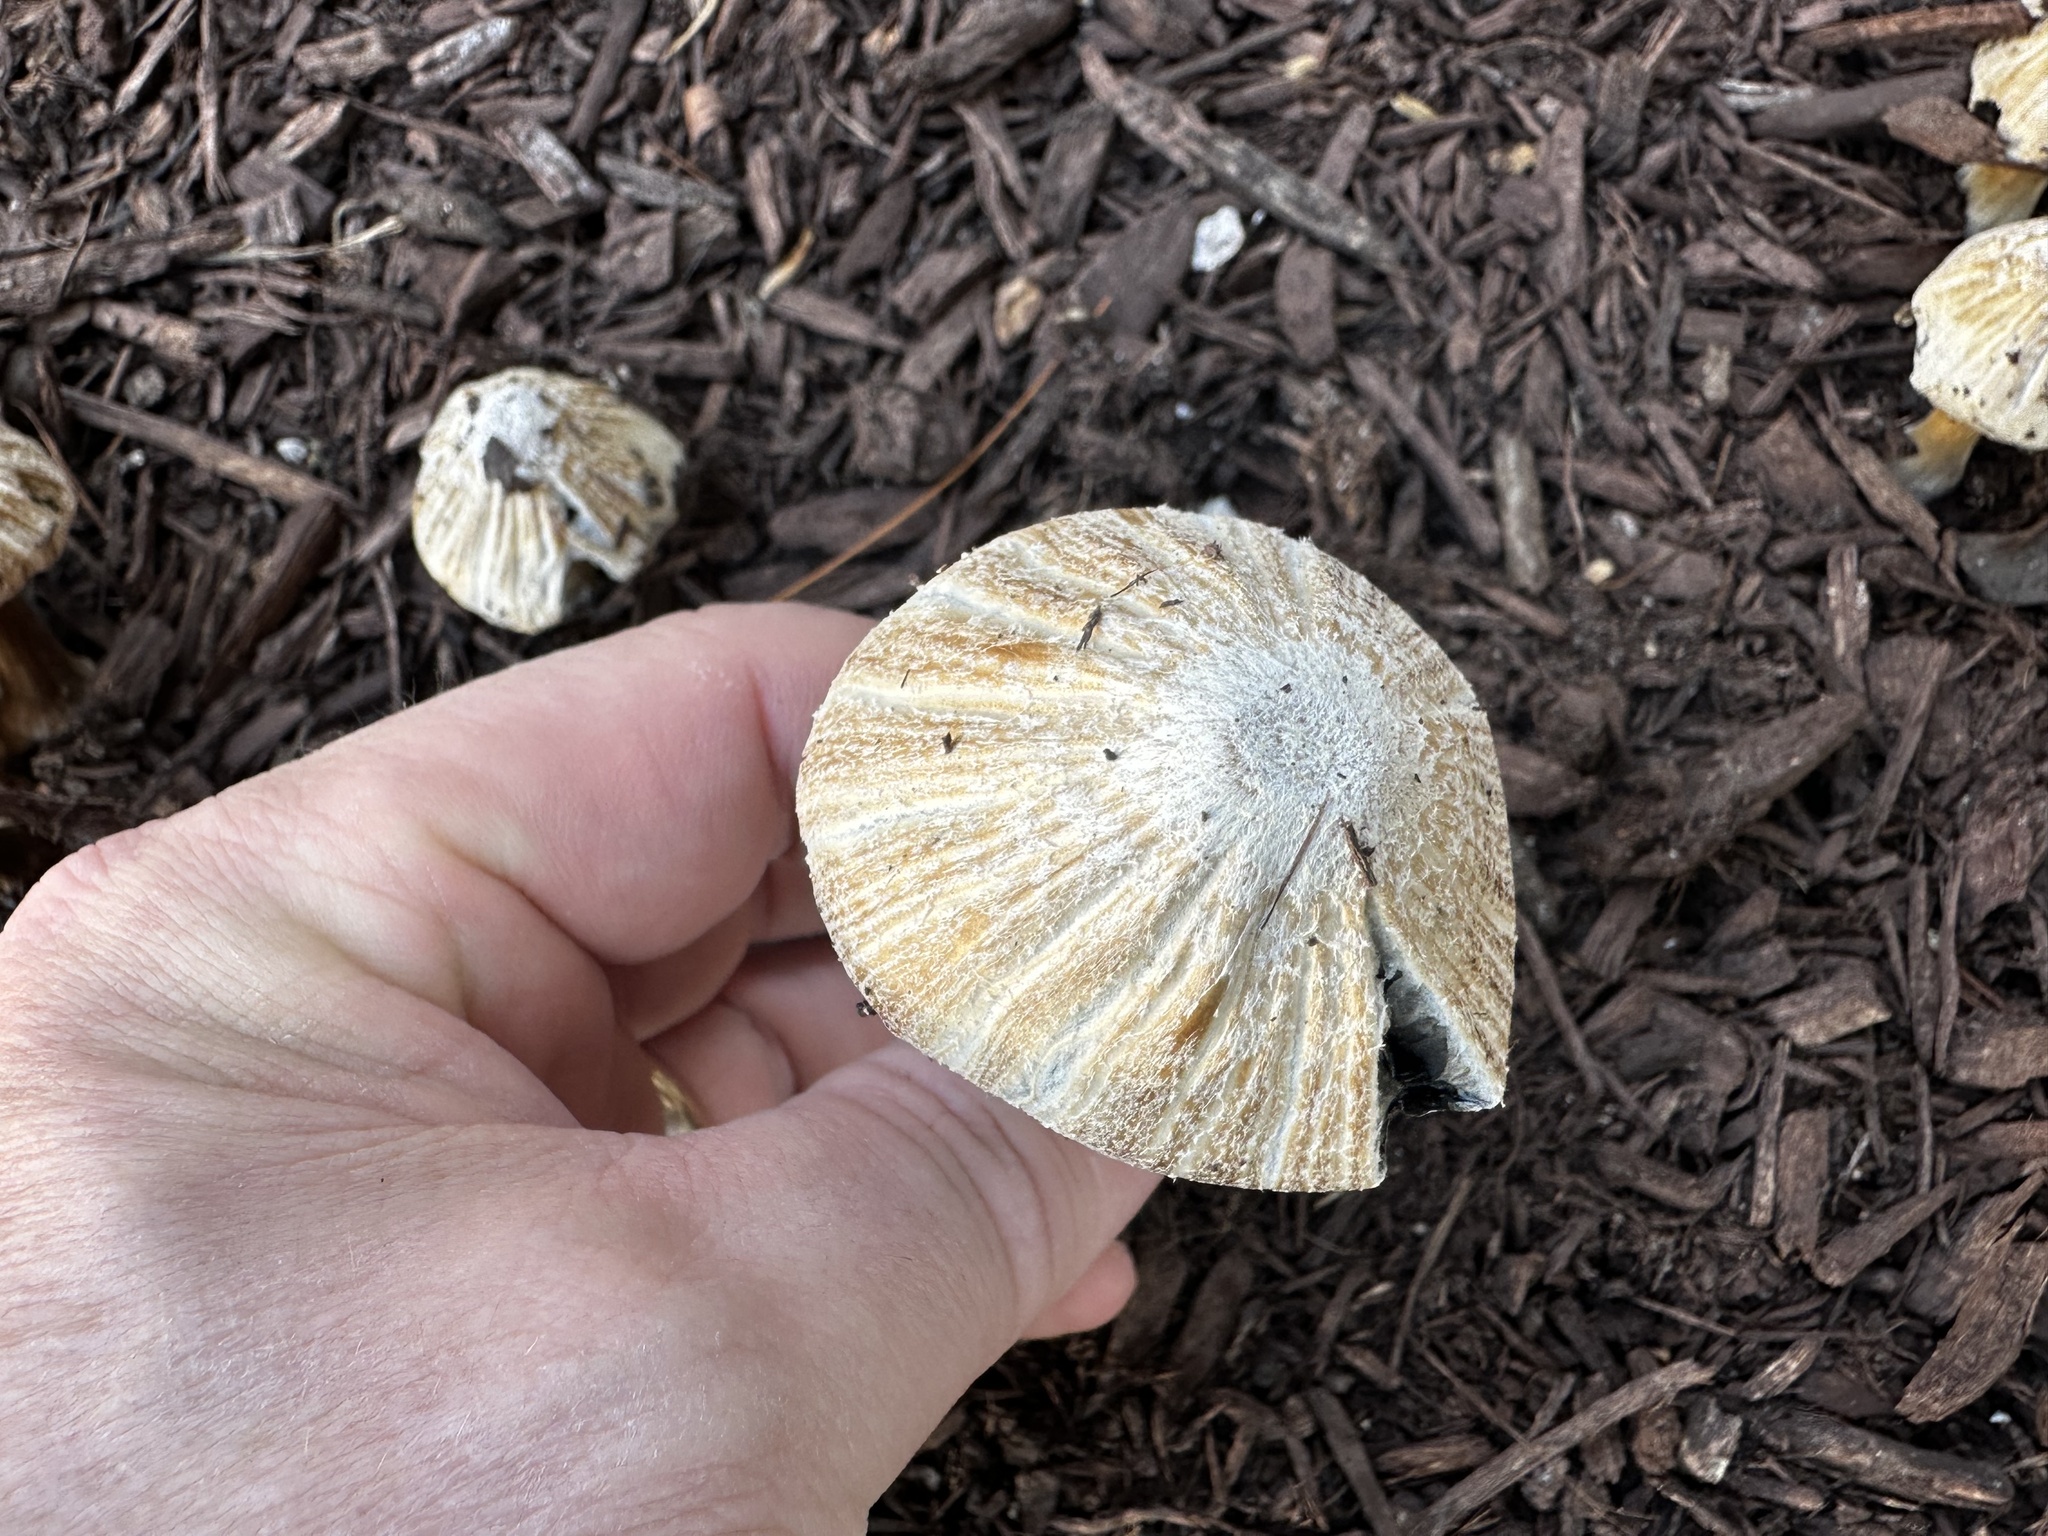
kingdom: Fungi
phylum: Basidiomycota
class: Agaricomycetes
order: Agaricales
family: Psathyrellaceae
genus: Coprinellus
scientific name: Coprinellus flocculosus
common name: Flocculose inkcap
